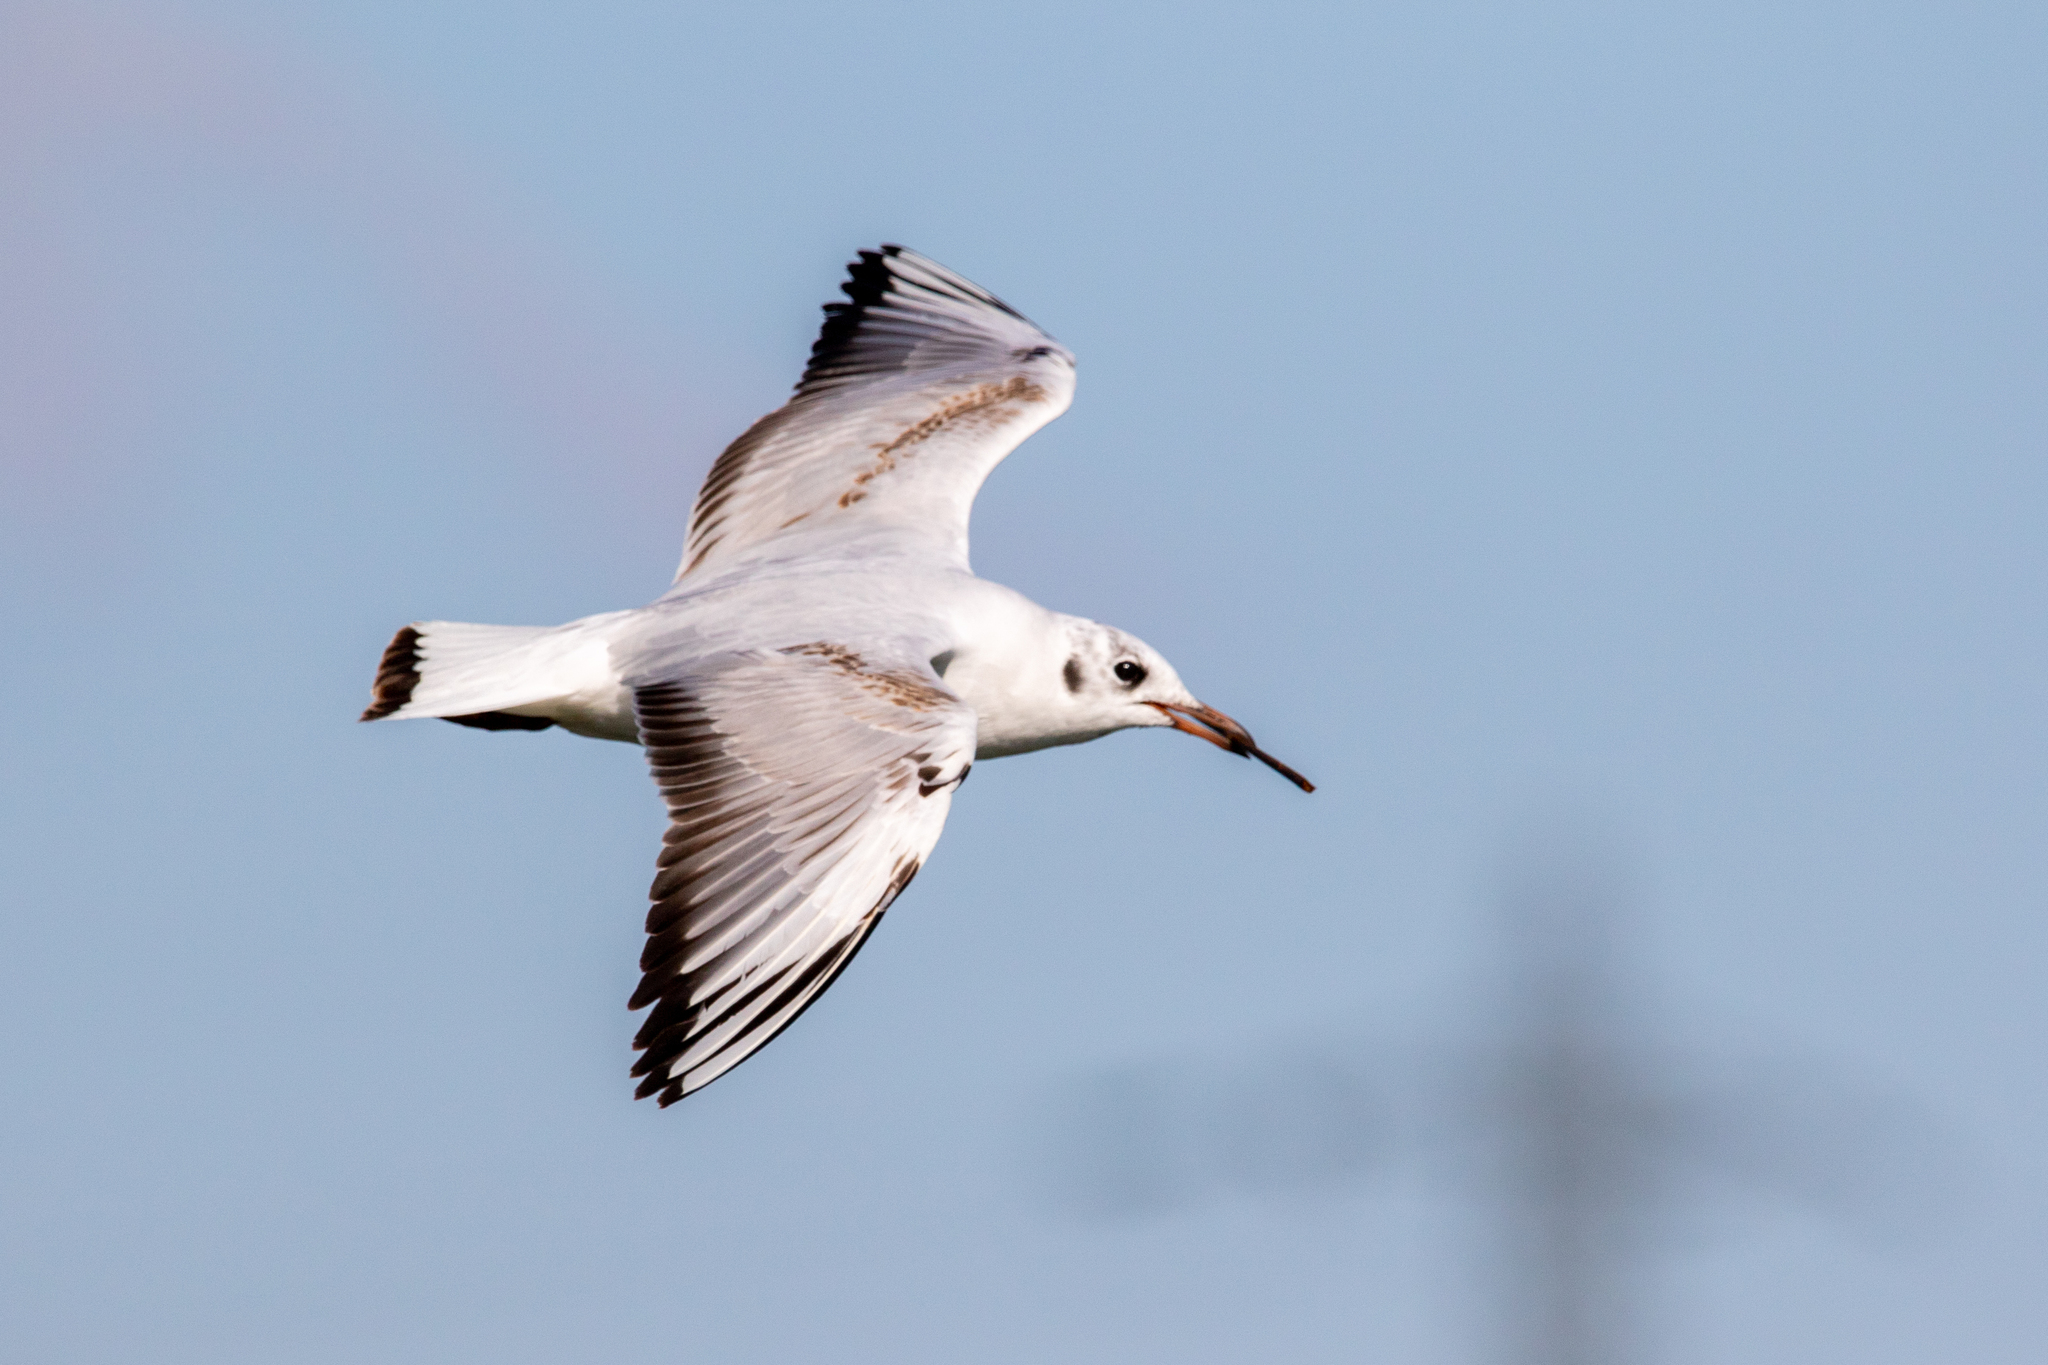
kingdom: Animalia
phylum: Chordata
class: Aves
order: Charadriiformes
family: Laridae
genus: Chroicocephalus
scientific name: Chroicocephalus ridibundus
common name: Black-headed gull
